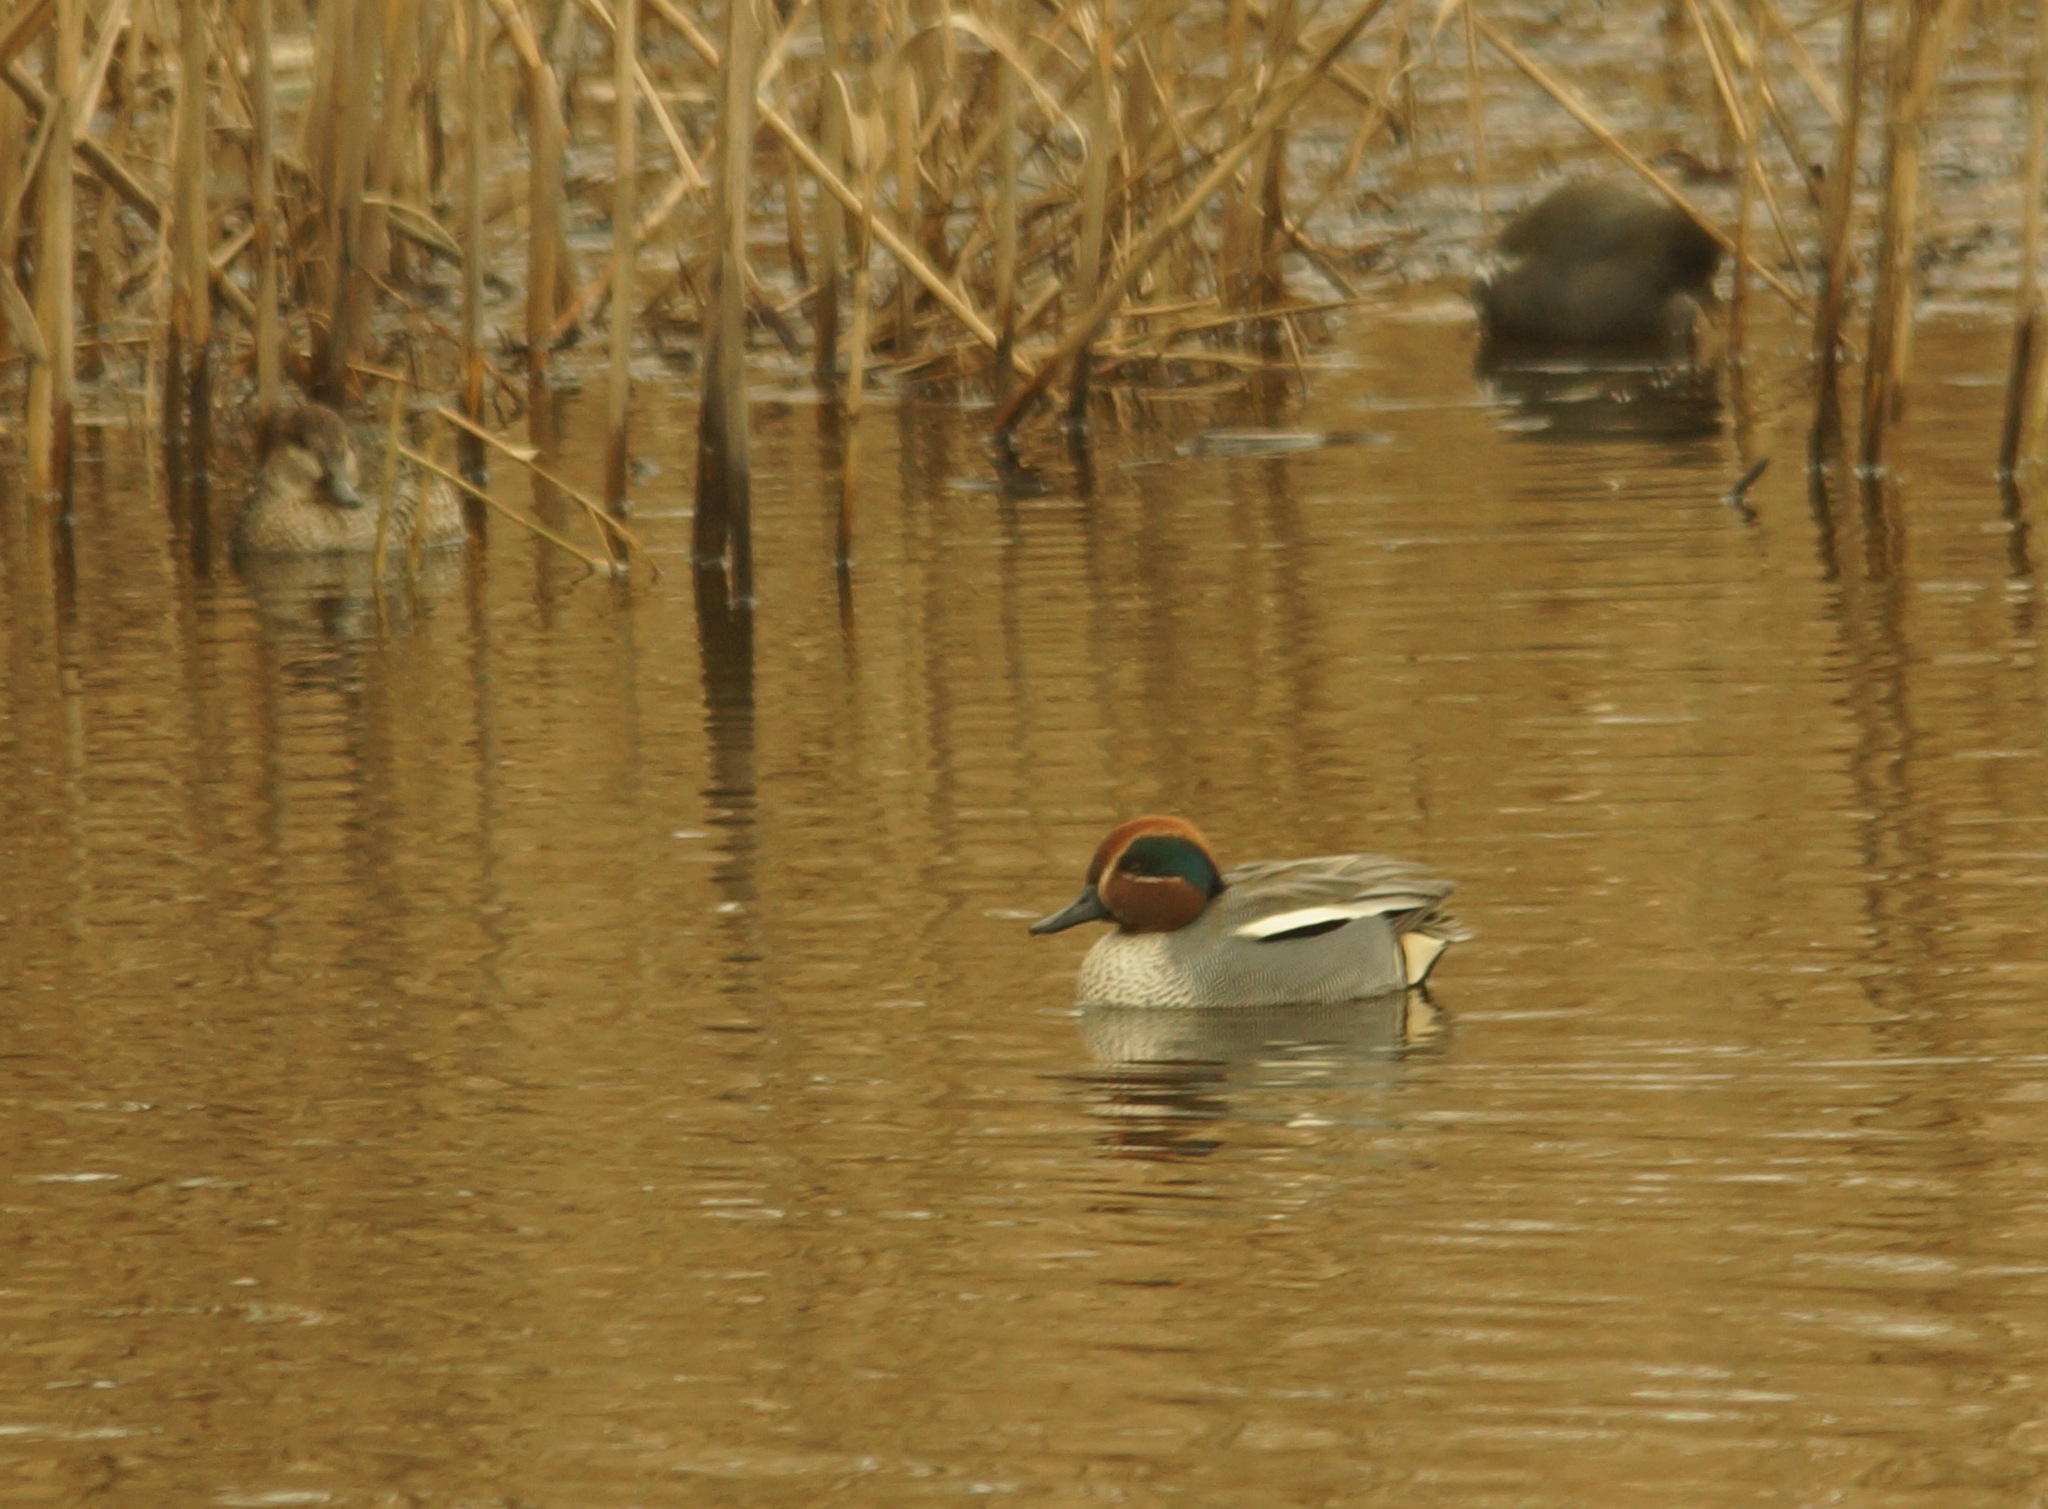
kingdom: Animalia
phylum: Chordata
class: Aves
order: Anseriformes
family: Anatidae
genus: Anas
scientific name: Anas crecca
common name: Eurasian teal
